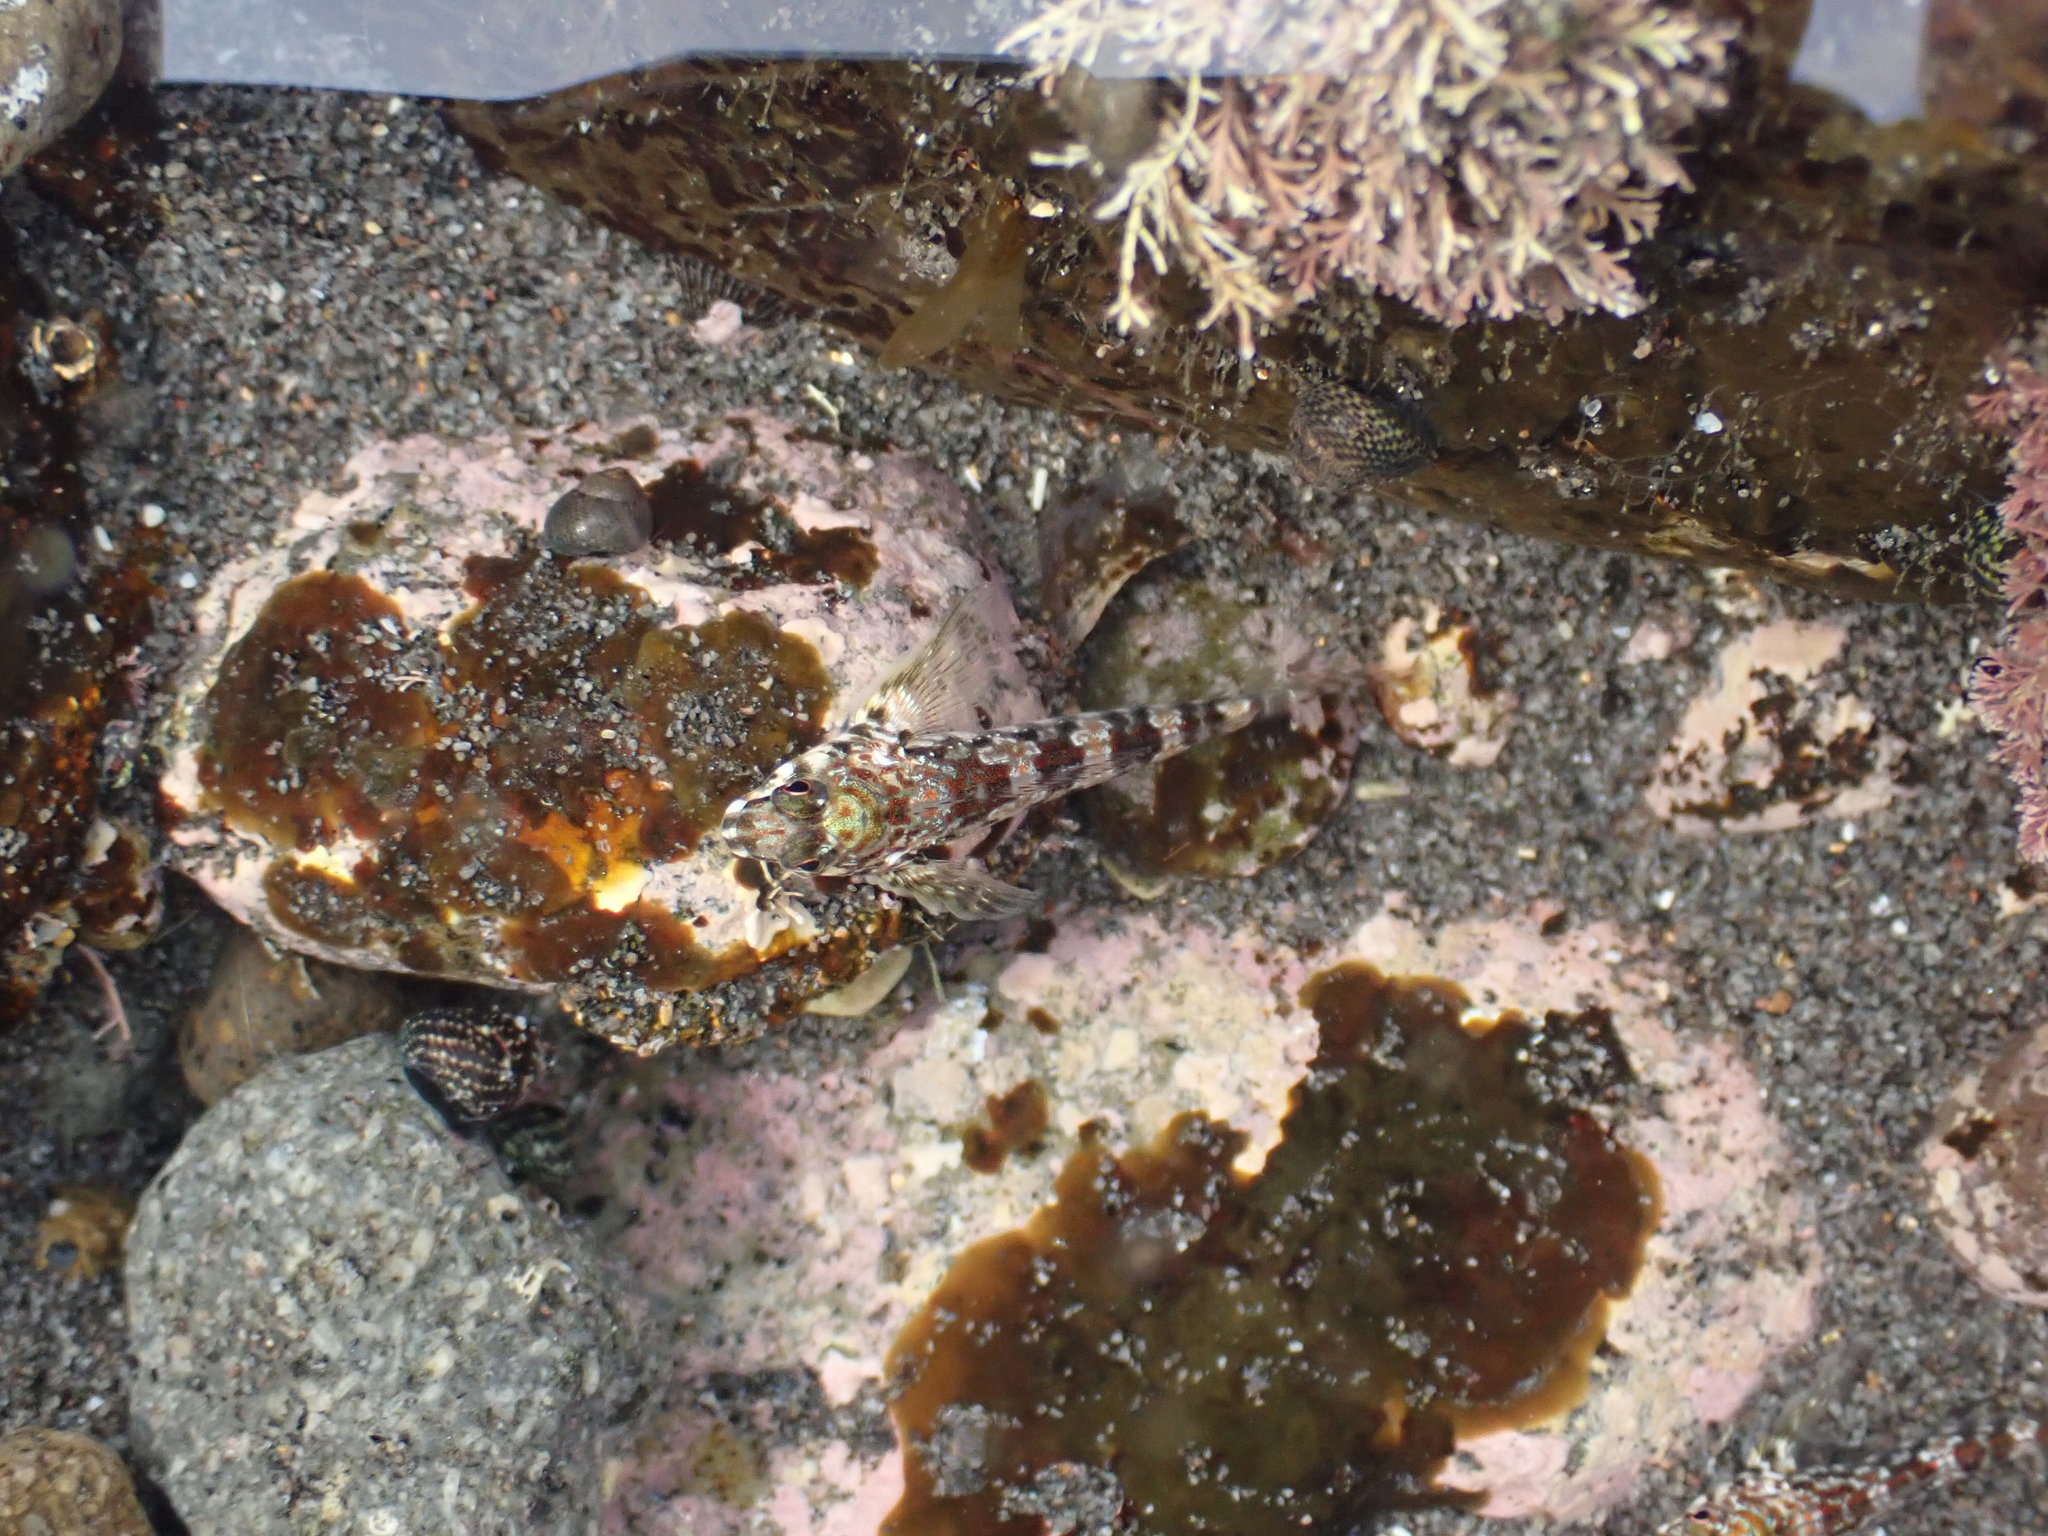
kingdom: Animalia
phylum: Chordata
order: Perciformes
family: Tripterygiidae
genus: Bellapiscis
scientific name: Bellapiscis lesleyae
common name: Mottled twister
